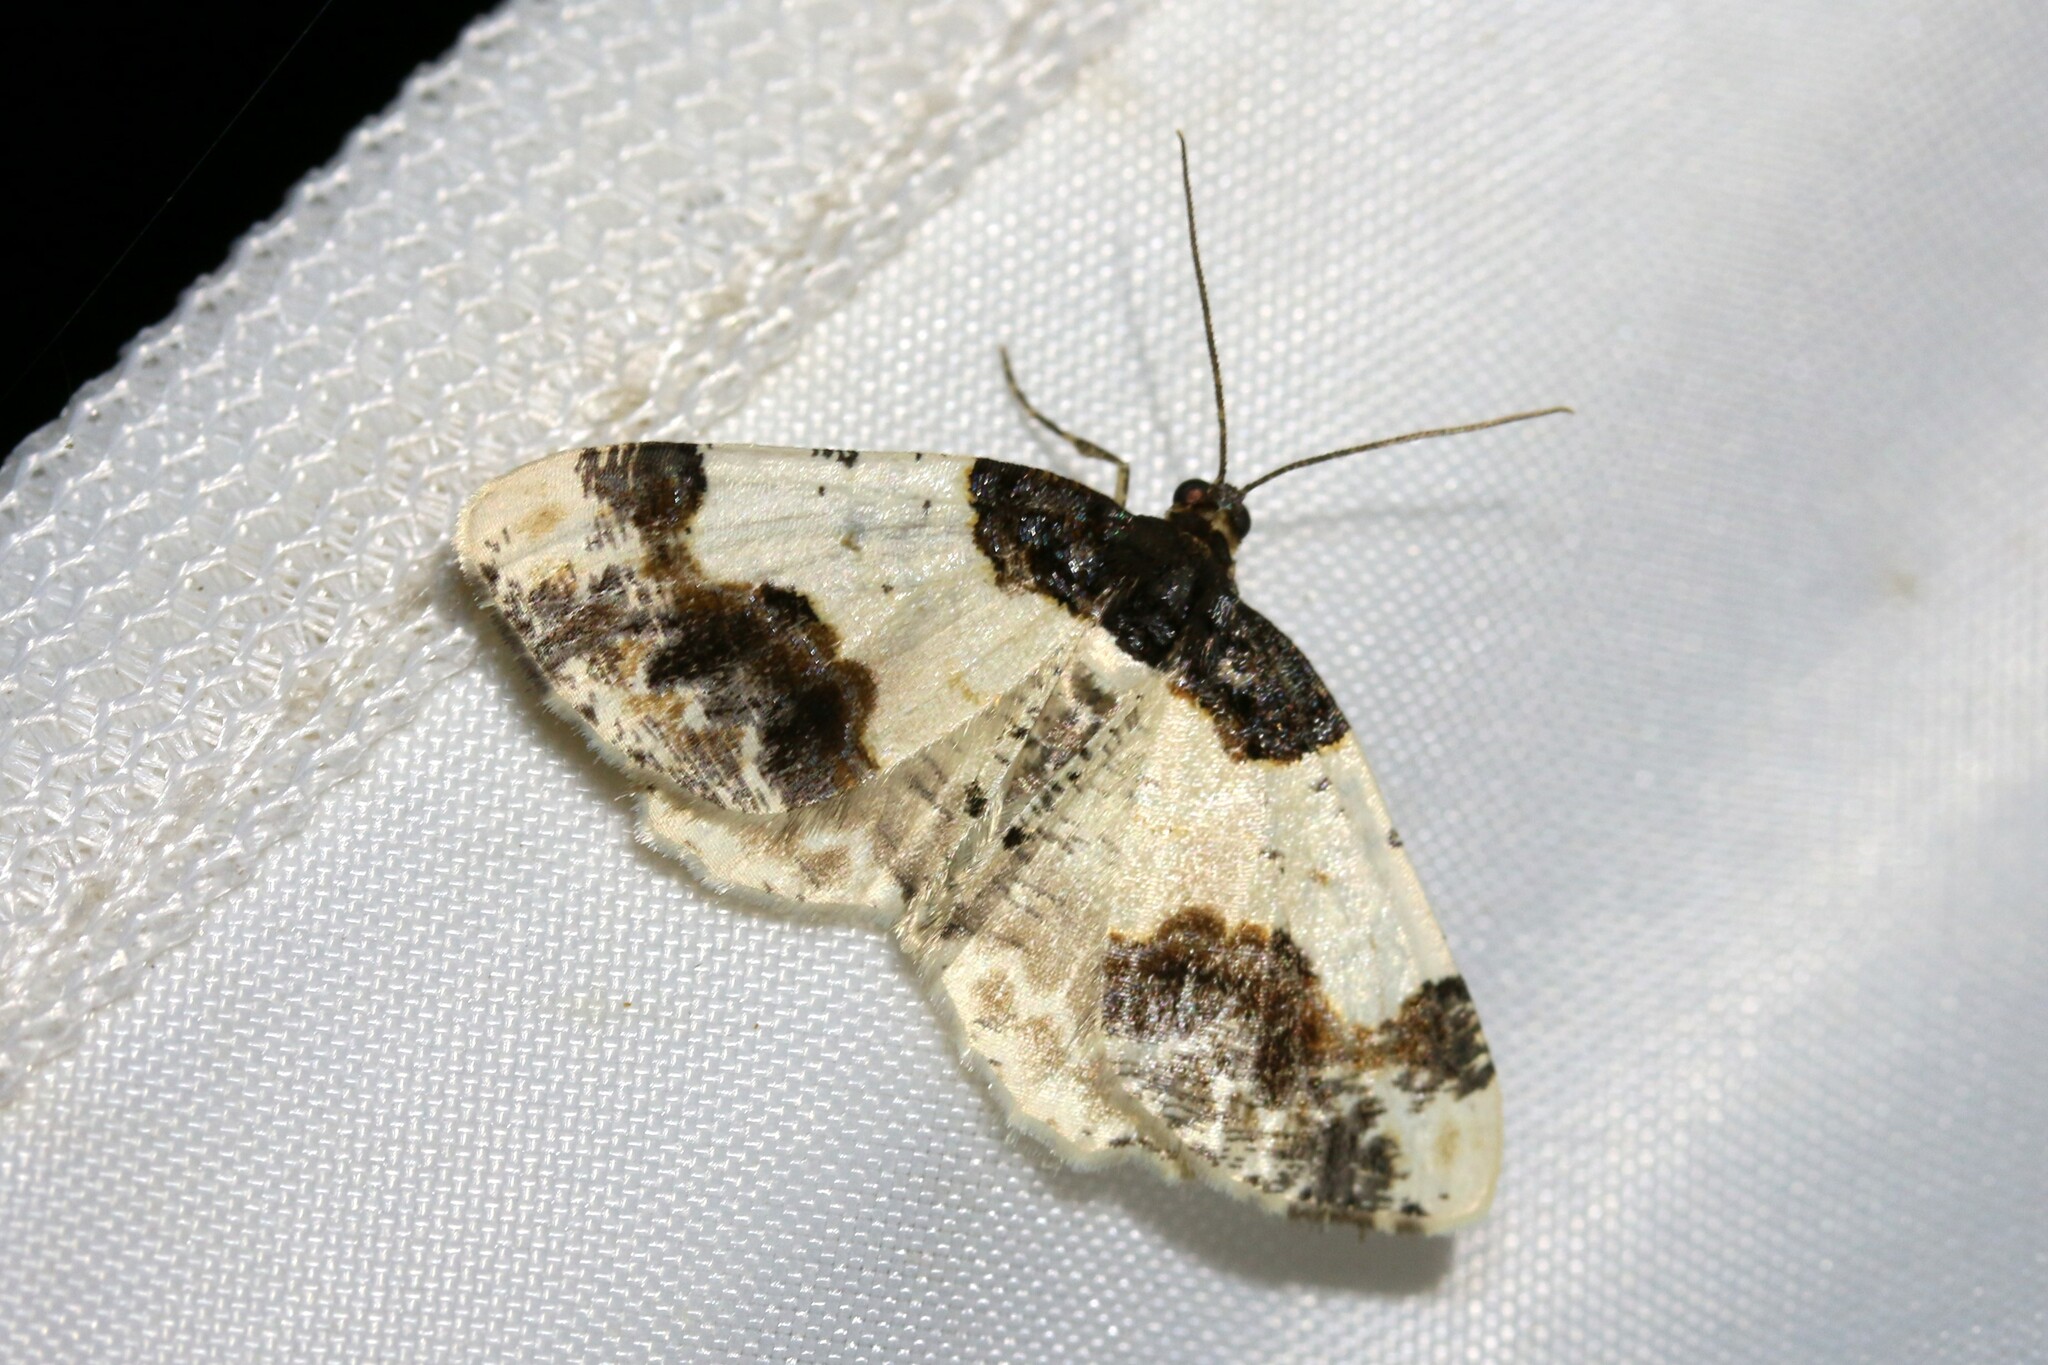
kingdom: Animalia
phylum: Arthropoda
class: Insecta
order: Lepidoptera
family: Geometridae
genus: Ligdia
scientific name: Ligdia adustata
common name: Scorched carpet
